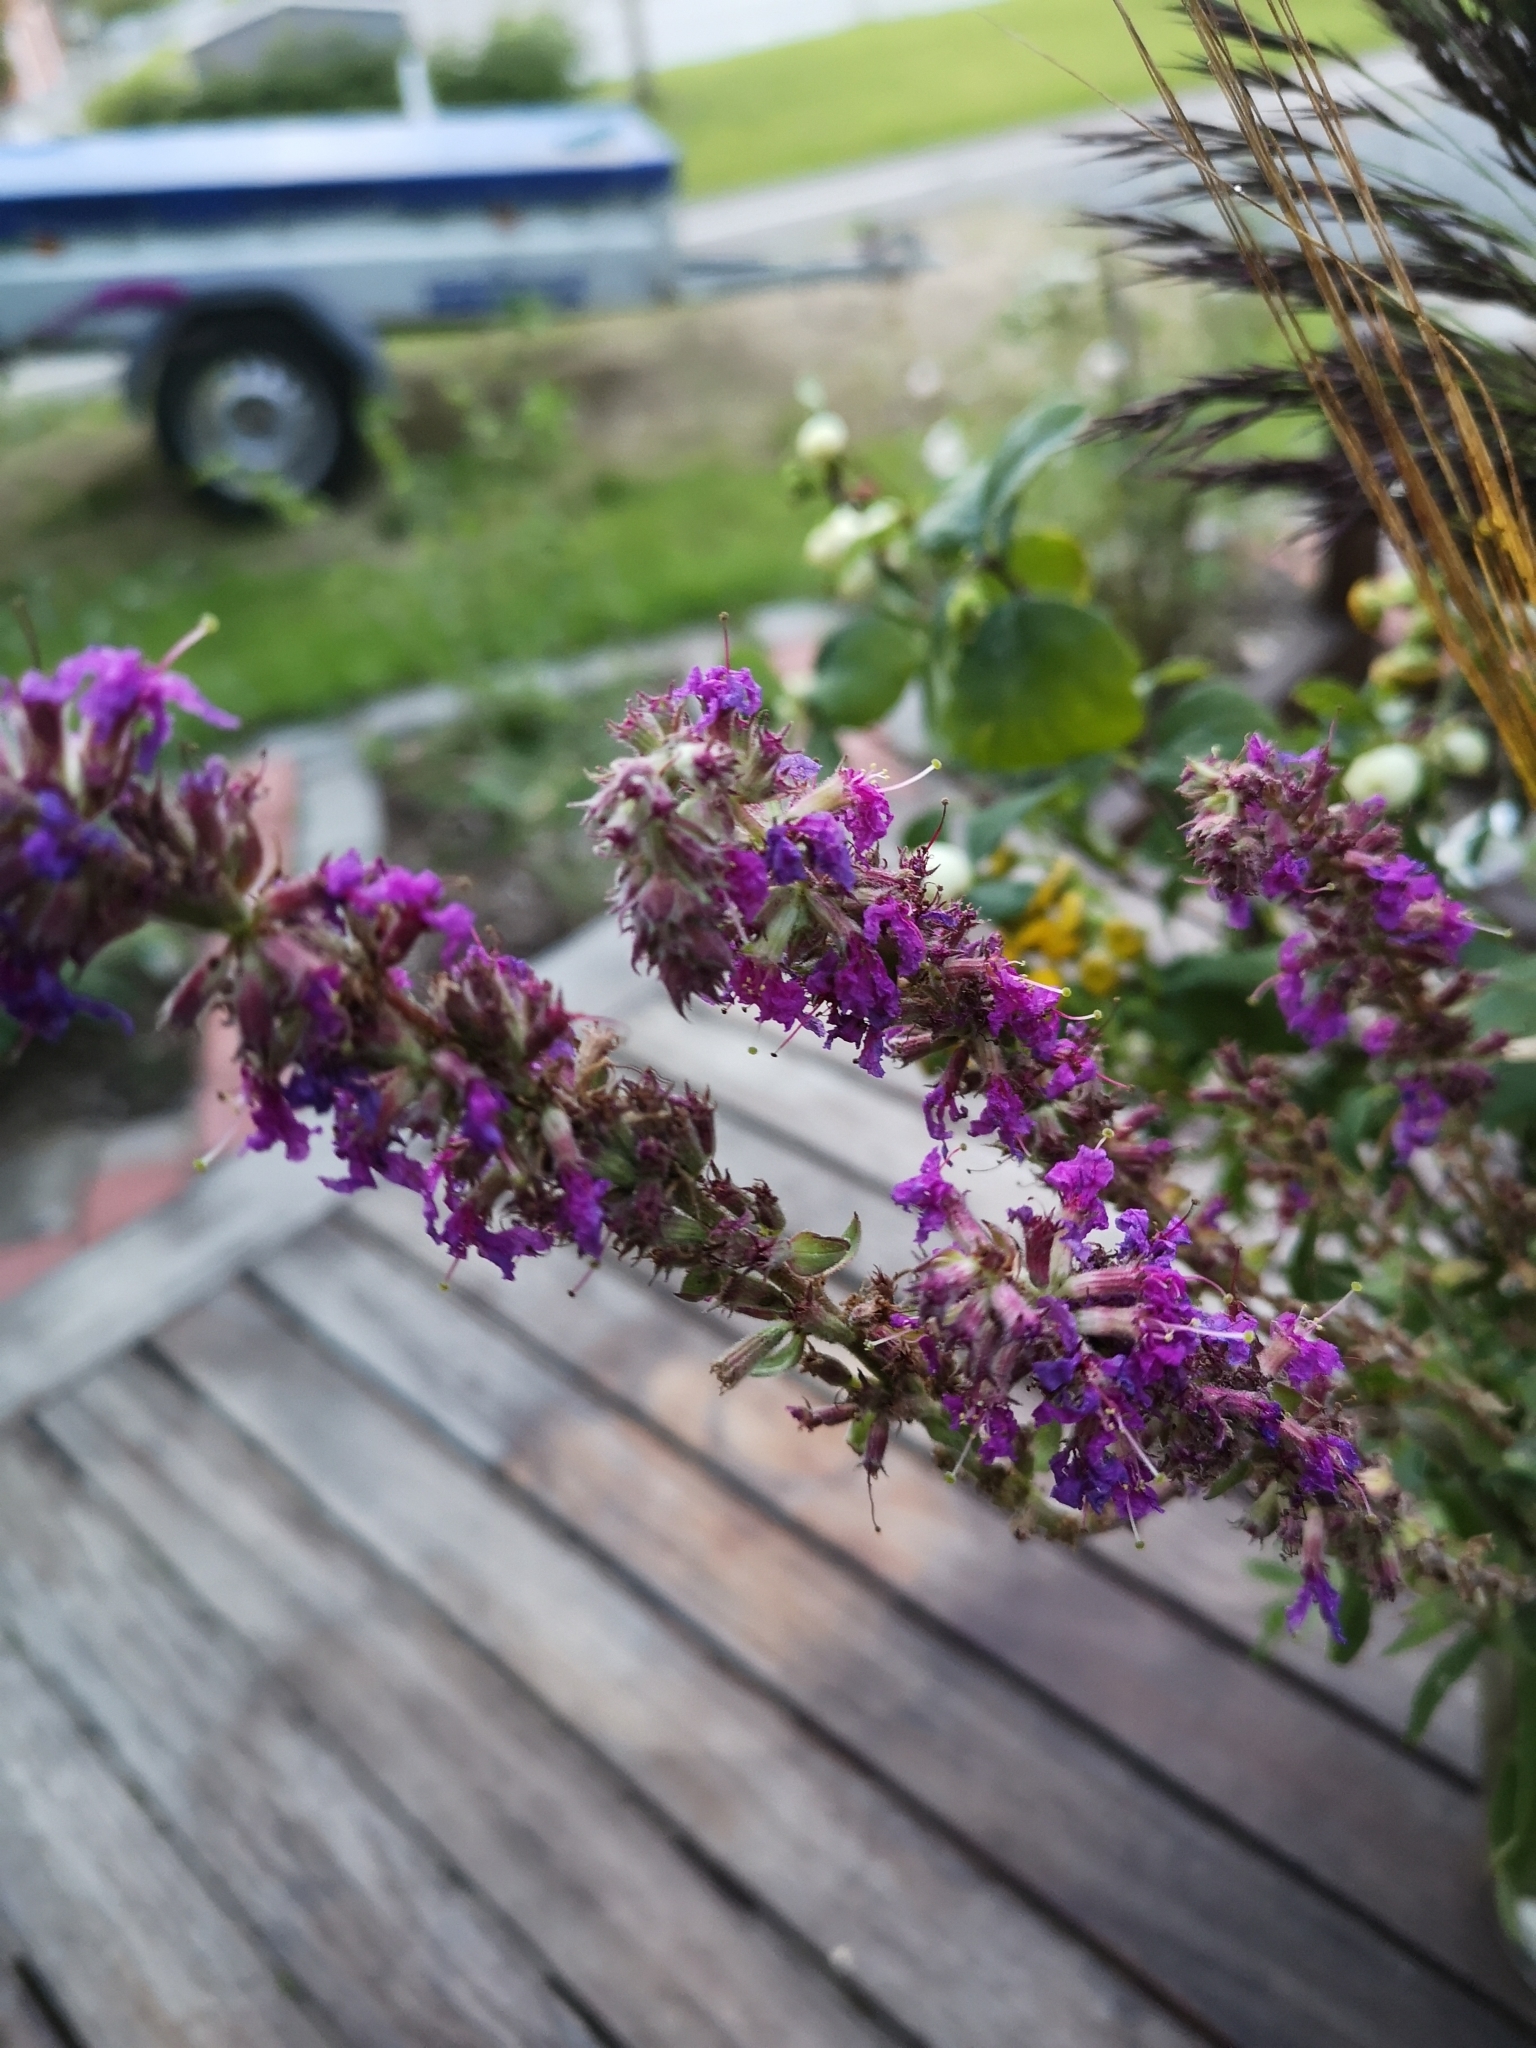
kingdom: Plantae
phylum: Tracheophyta
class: Magnoliopsida
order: Boraginales
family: Hydrophyllaceae
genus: Phacelia
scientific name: Phacelia tanacetifolia
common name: Phacelia
